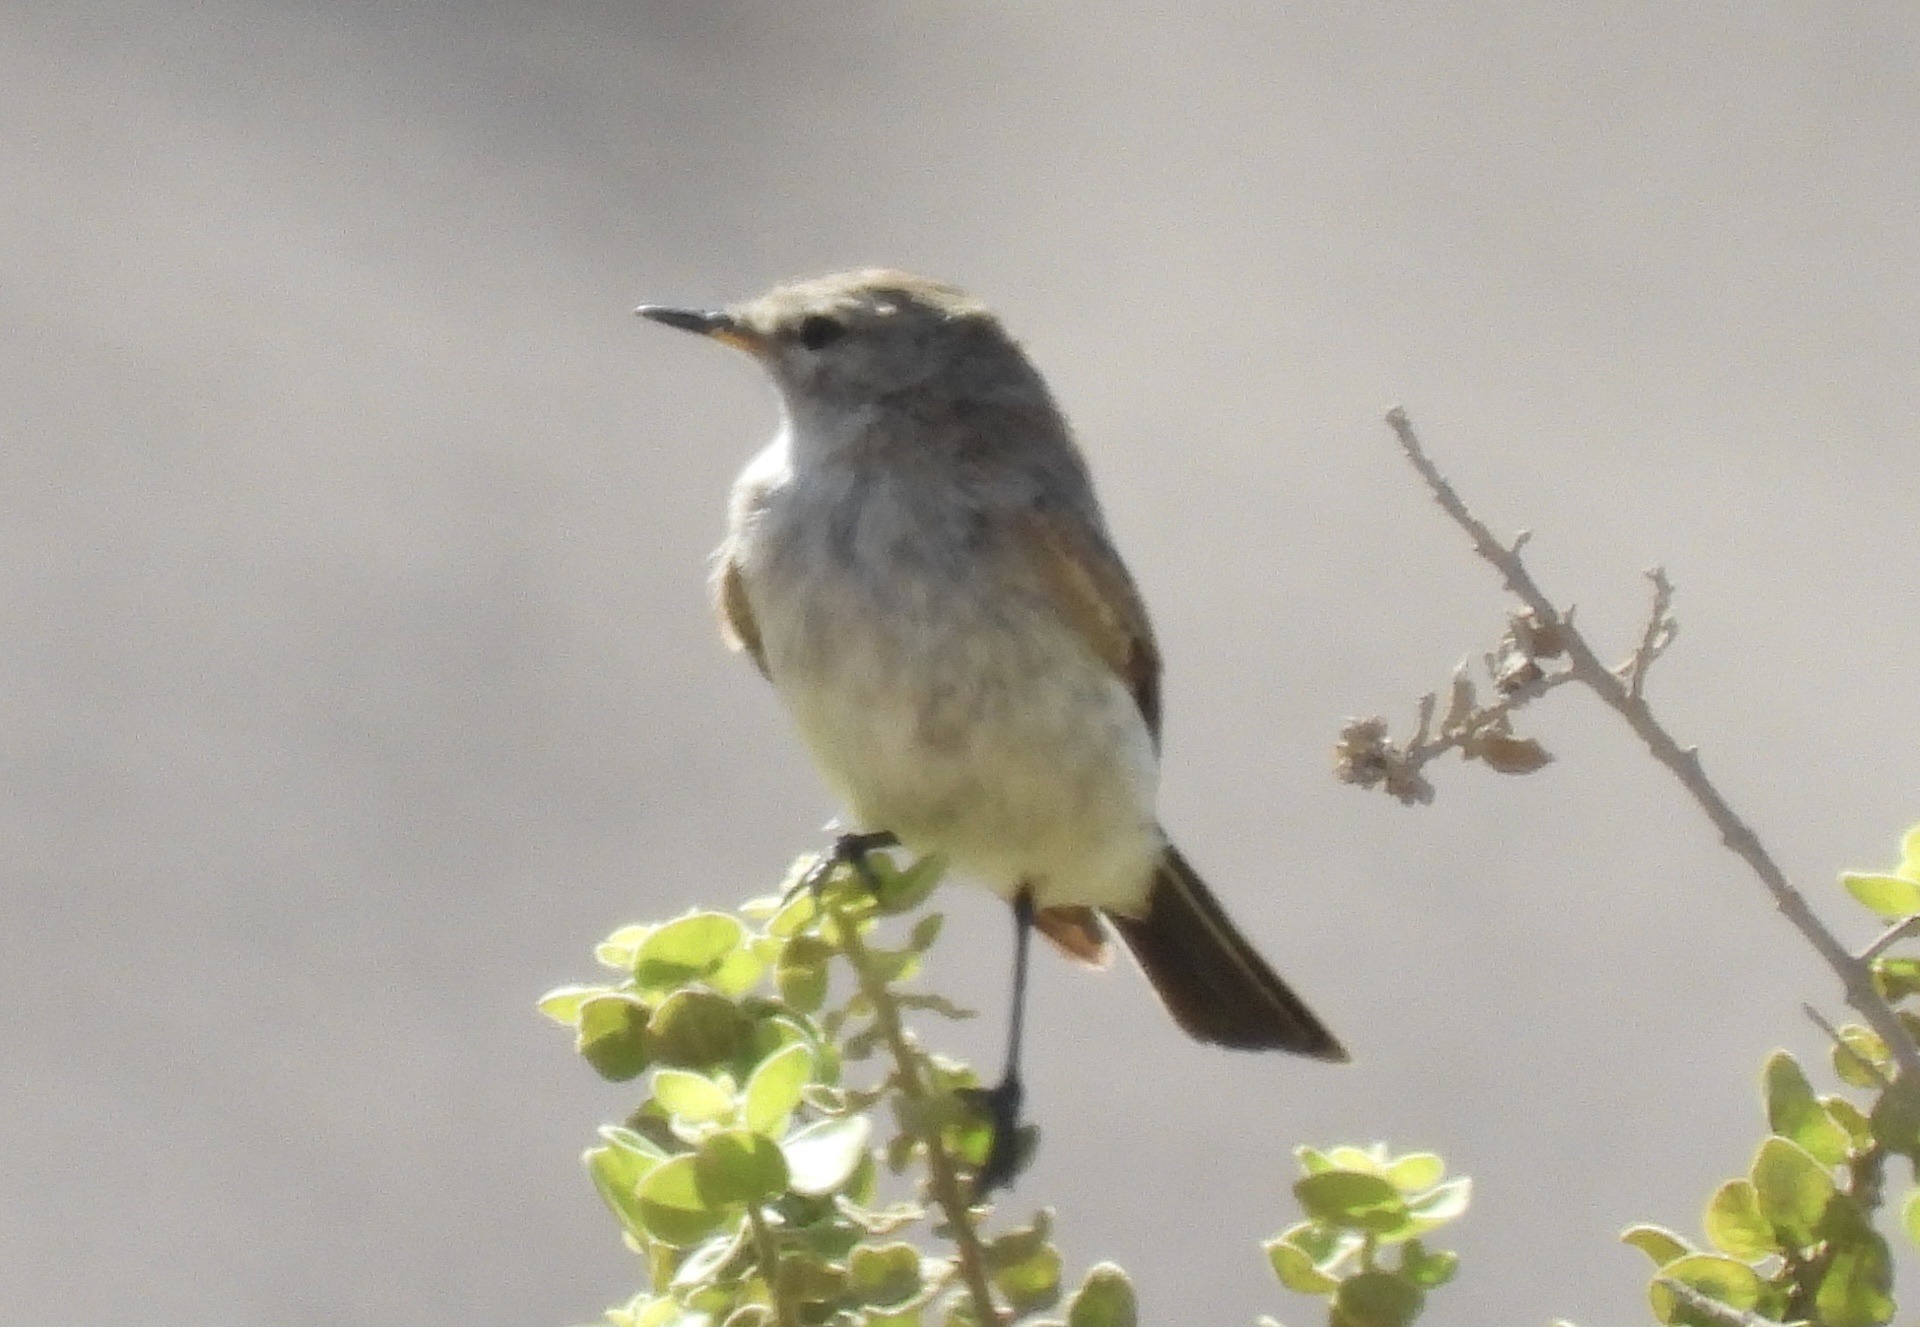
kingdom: Animalia
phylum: Chordata
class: Aves
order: Passeriformes
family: Tyrannidae
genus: Muscisaxicola
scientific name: Muscisaxicola maculirostris
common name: Spot-billed ground tyrant
